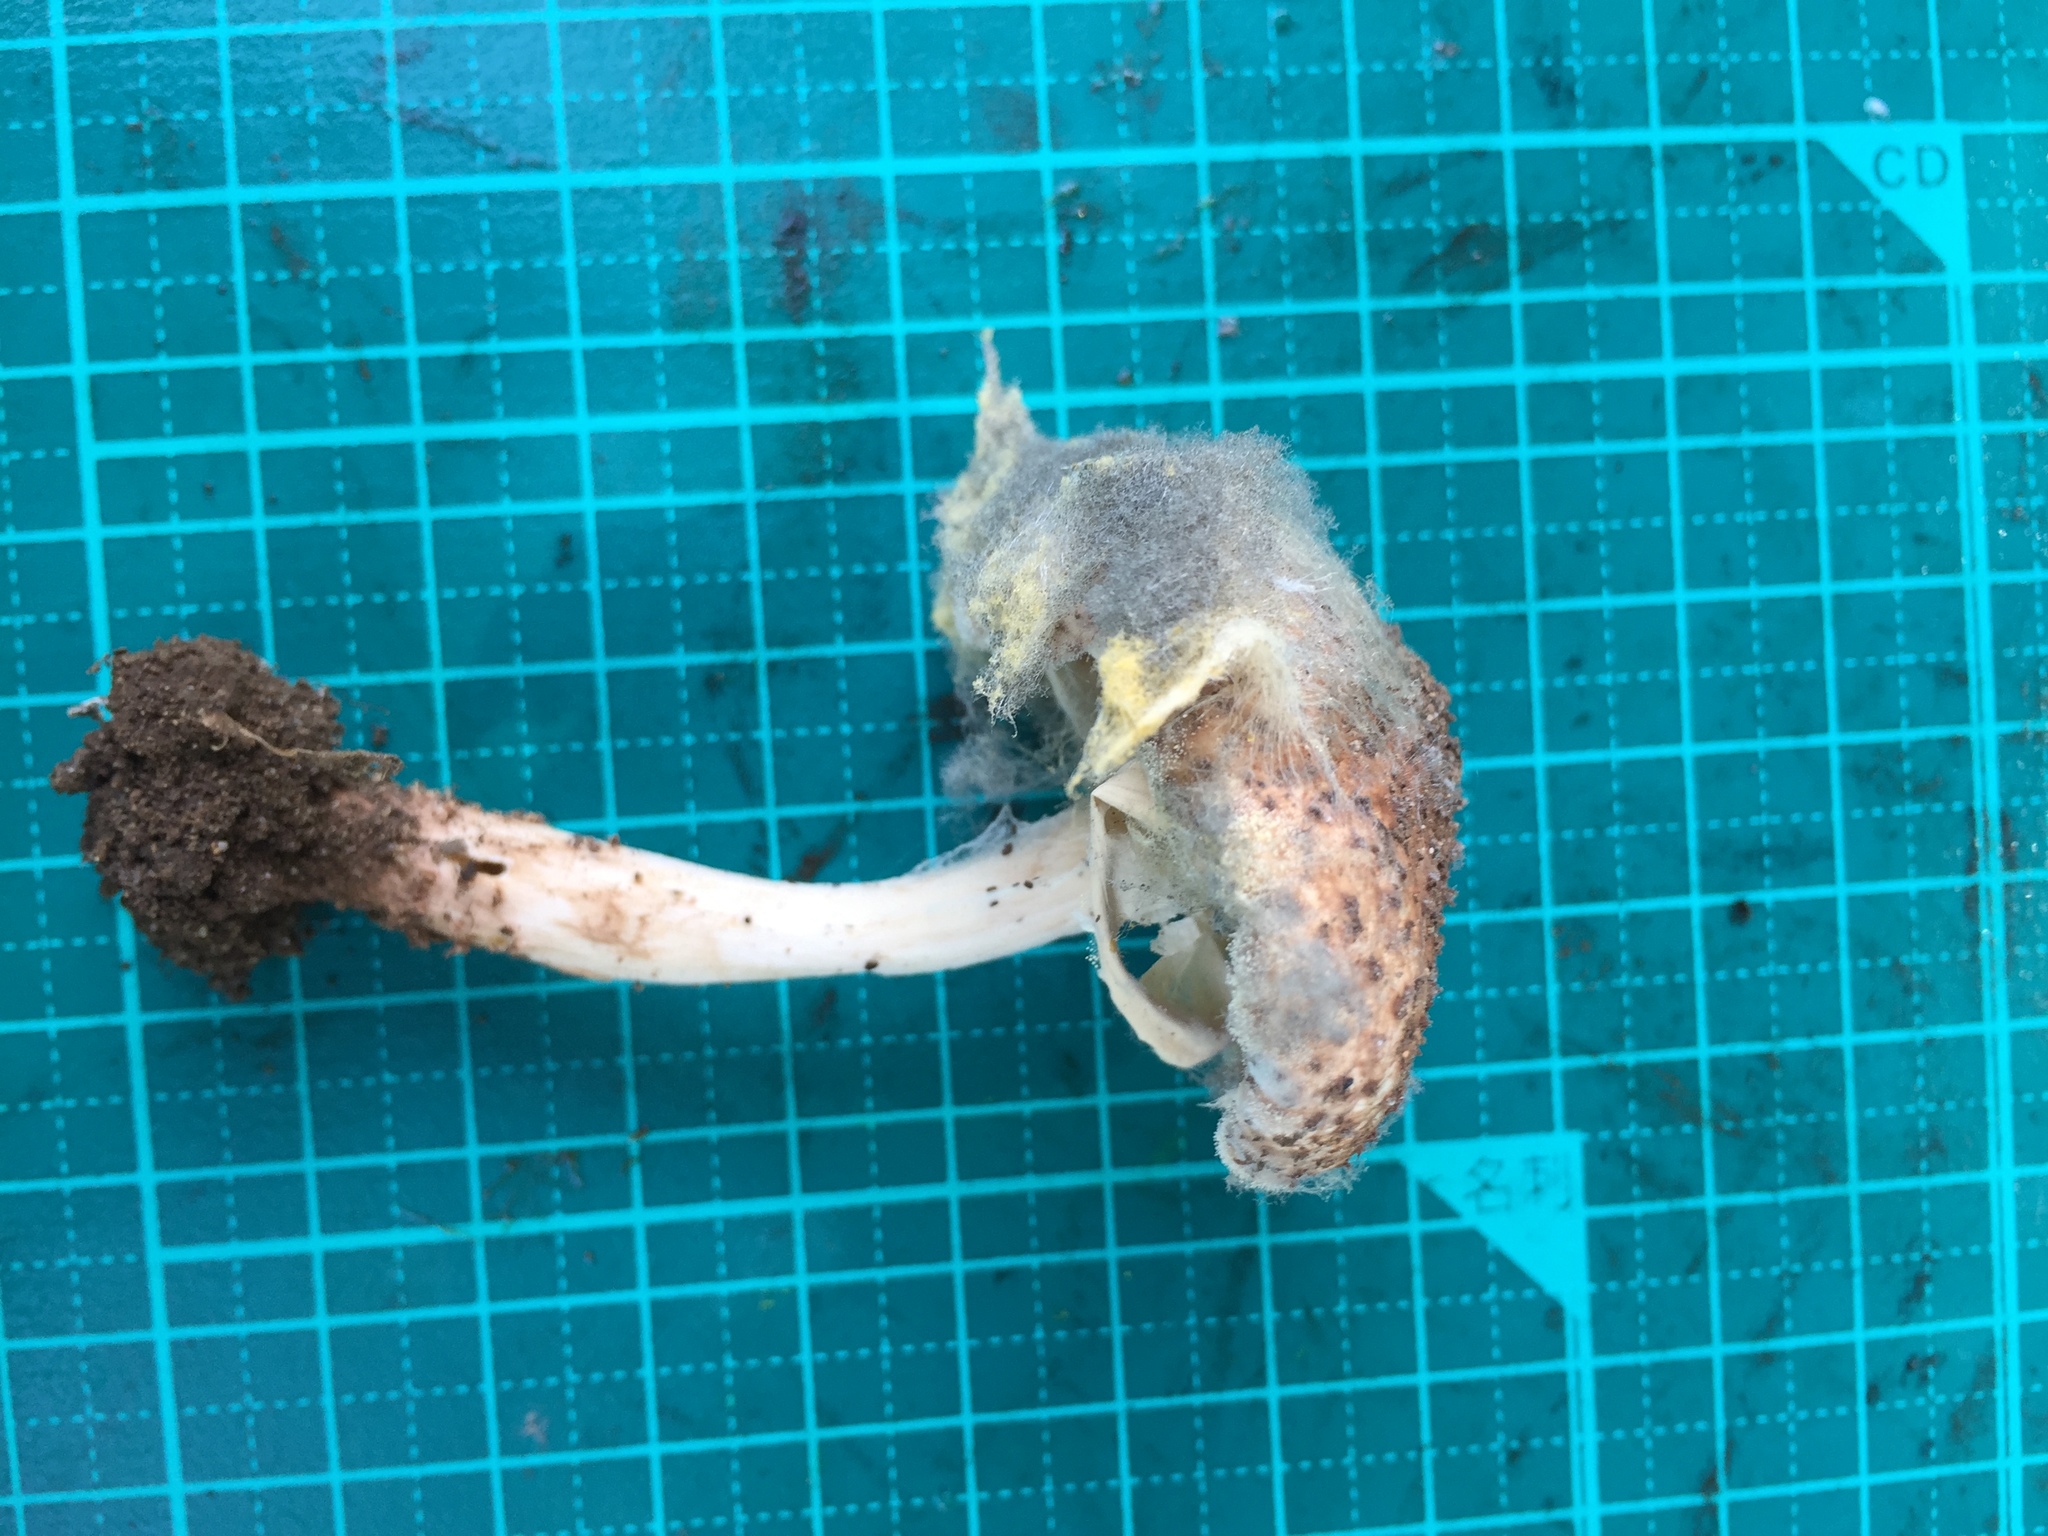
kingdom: Fungi
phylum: Mucoromycota
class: Mucoromycetes
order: Mucorales
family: Rhizopodaceae
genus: Syzygites
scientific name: Syzygites megalocarpus
